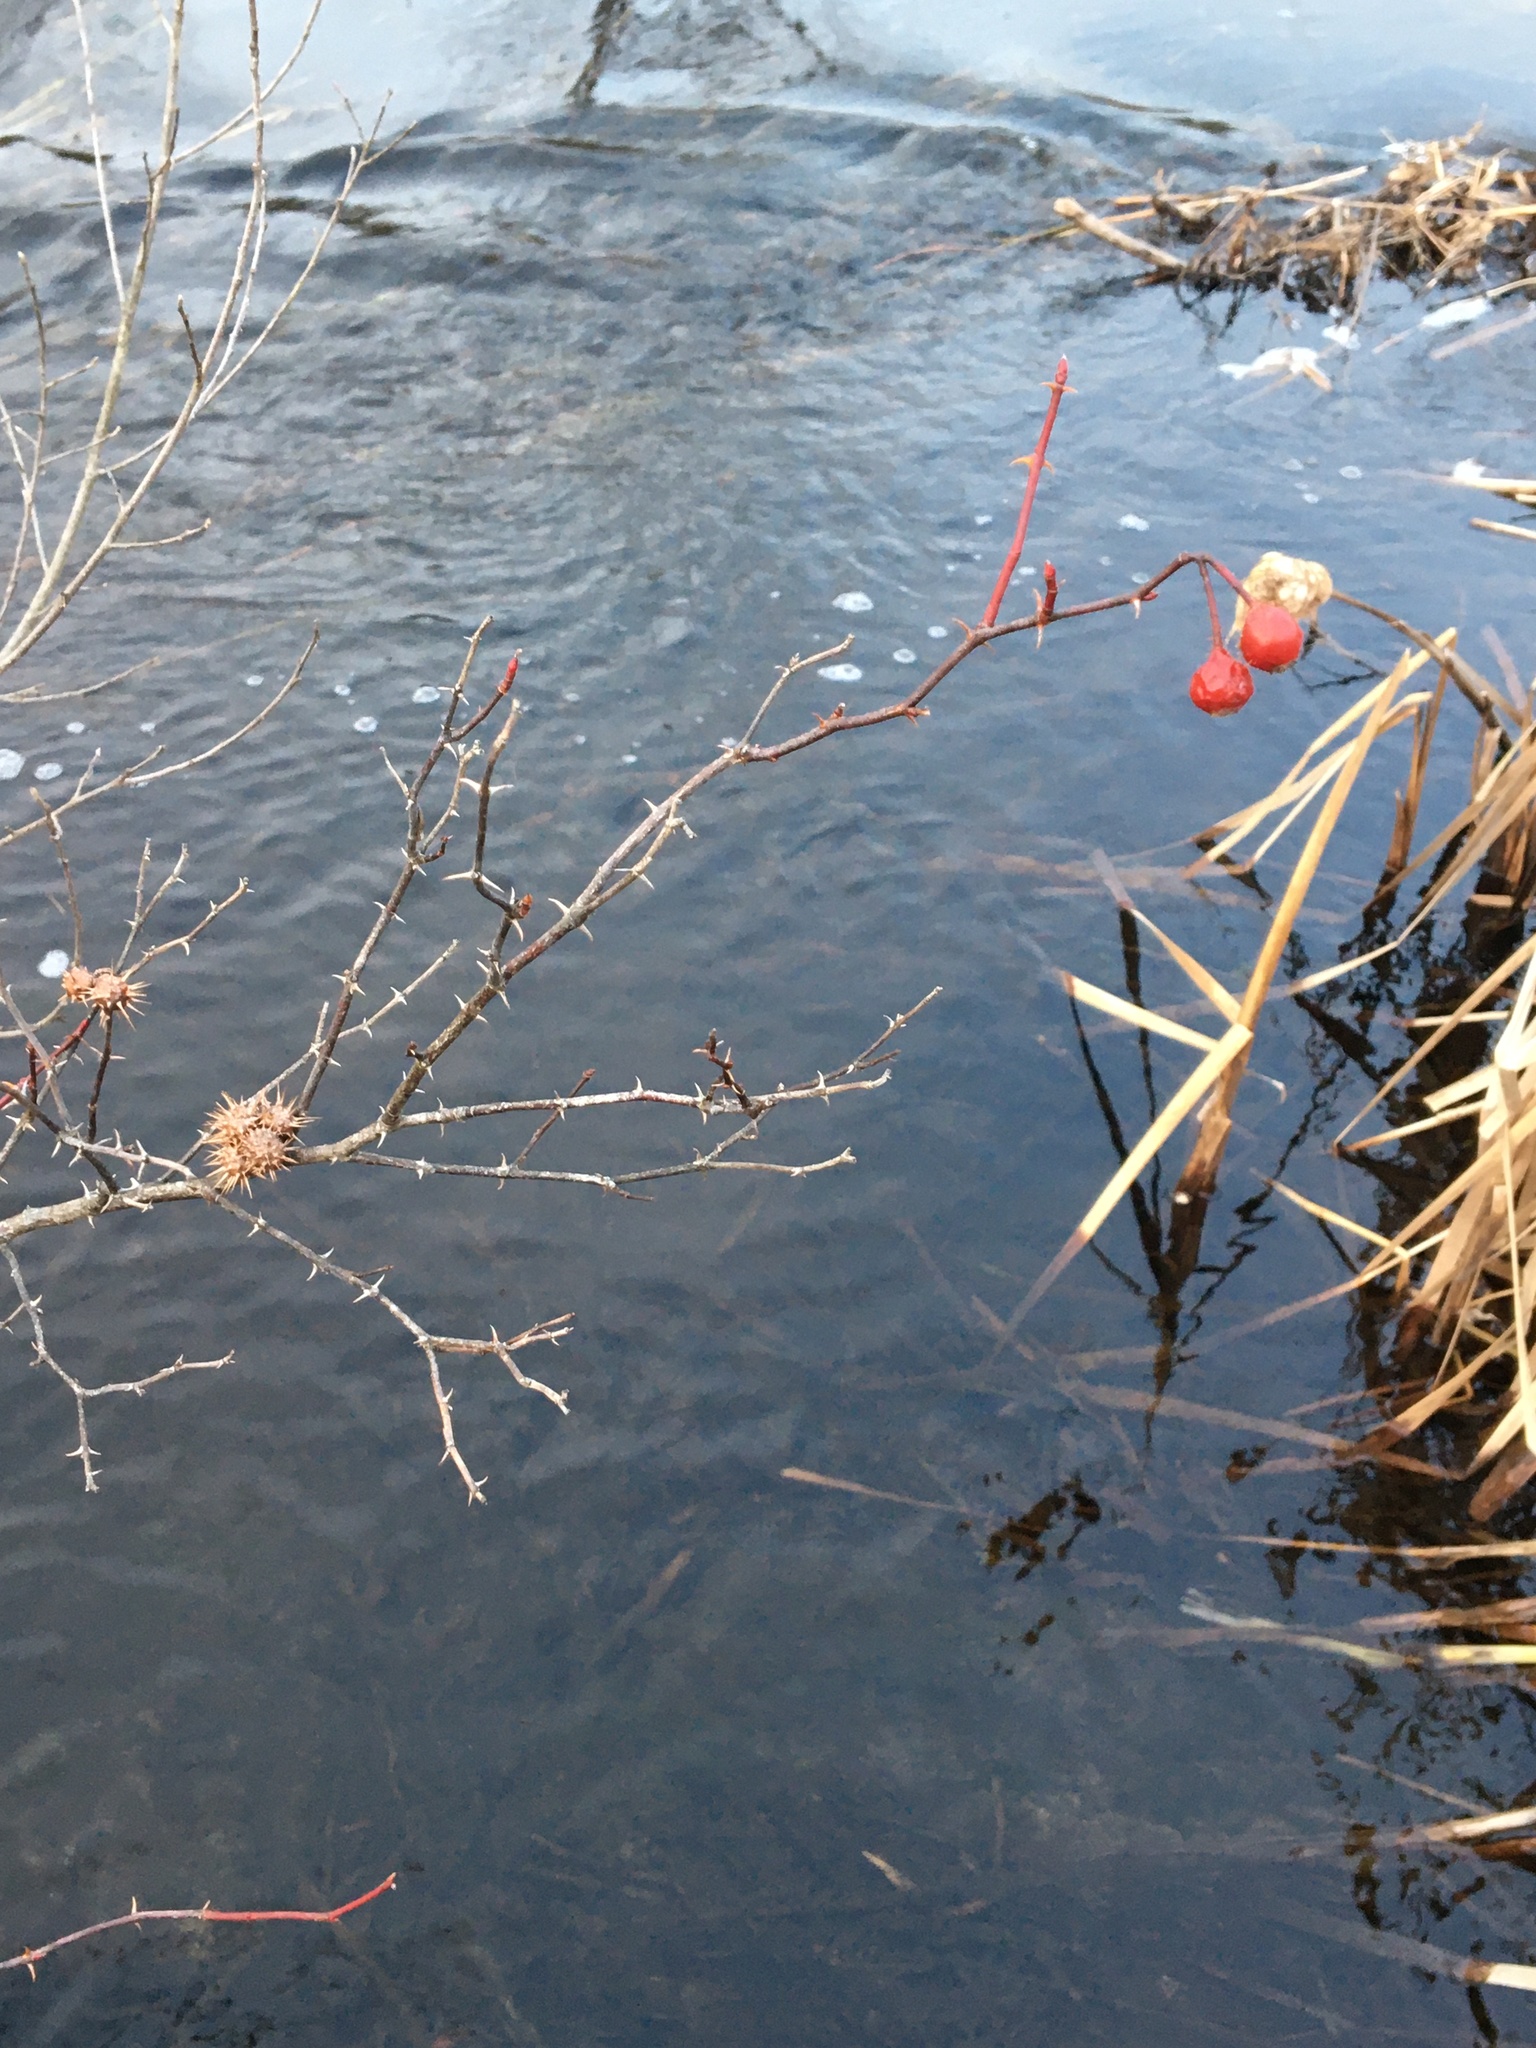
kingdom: Animalia
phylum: Arthropoda
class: Insecta
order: Hymenoptera
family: Cynipidae
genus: Diplolepis
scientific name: Diplolepis bicolor
